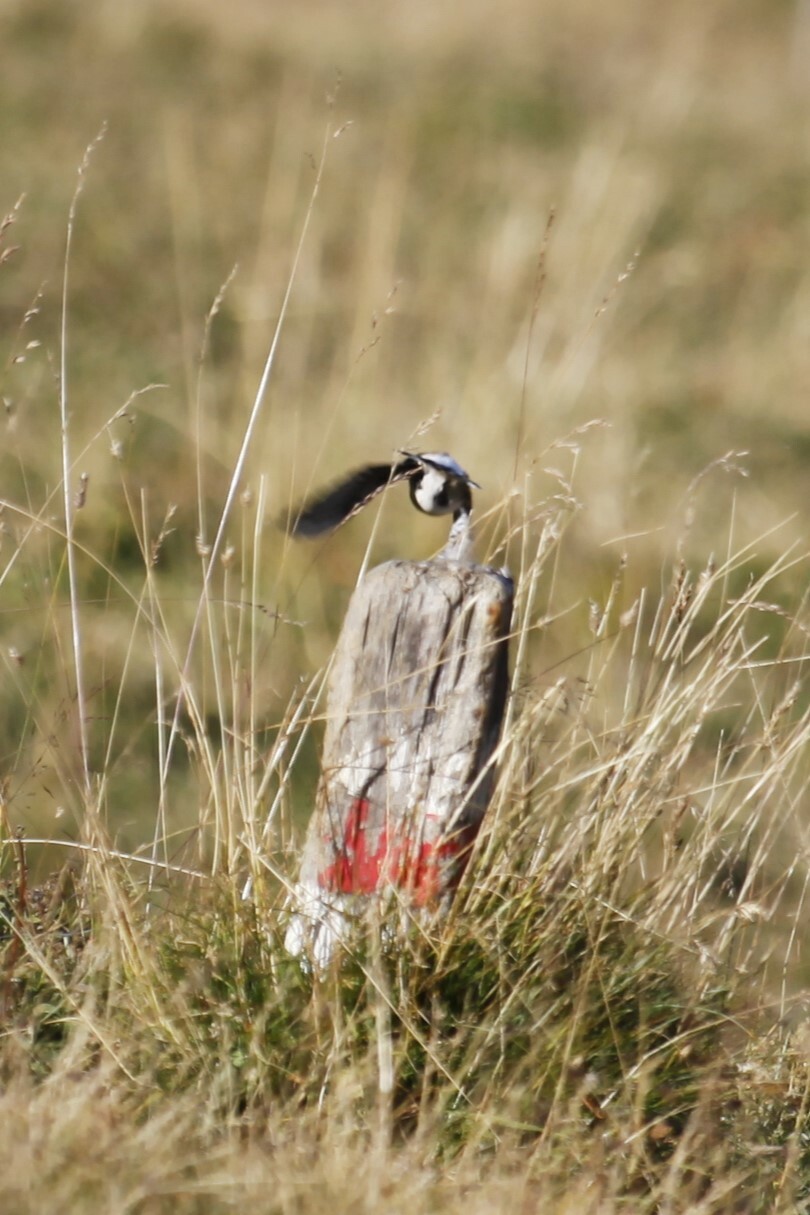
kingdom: Animalia
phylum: Chordata
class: Aves
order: Passeriformes
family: Muscicapidae
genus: Oenanthe
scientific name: Oenanthe oenanthe
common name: Northern wheatear
